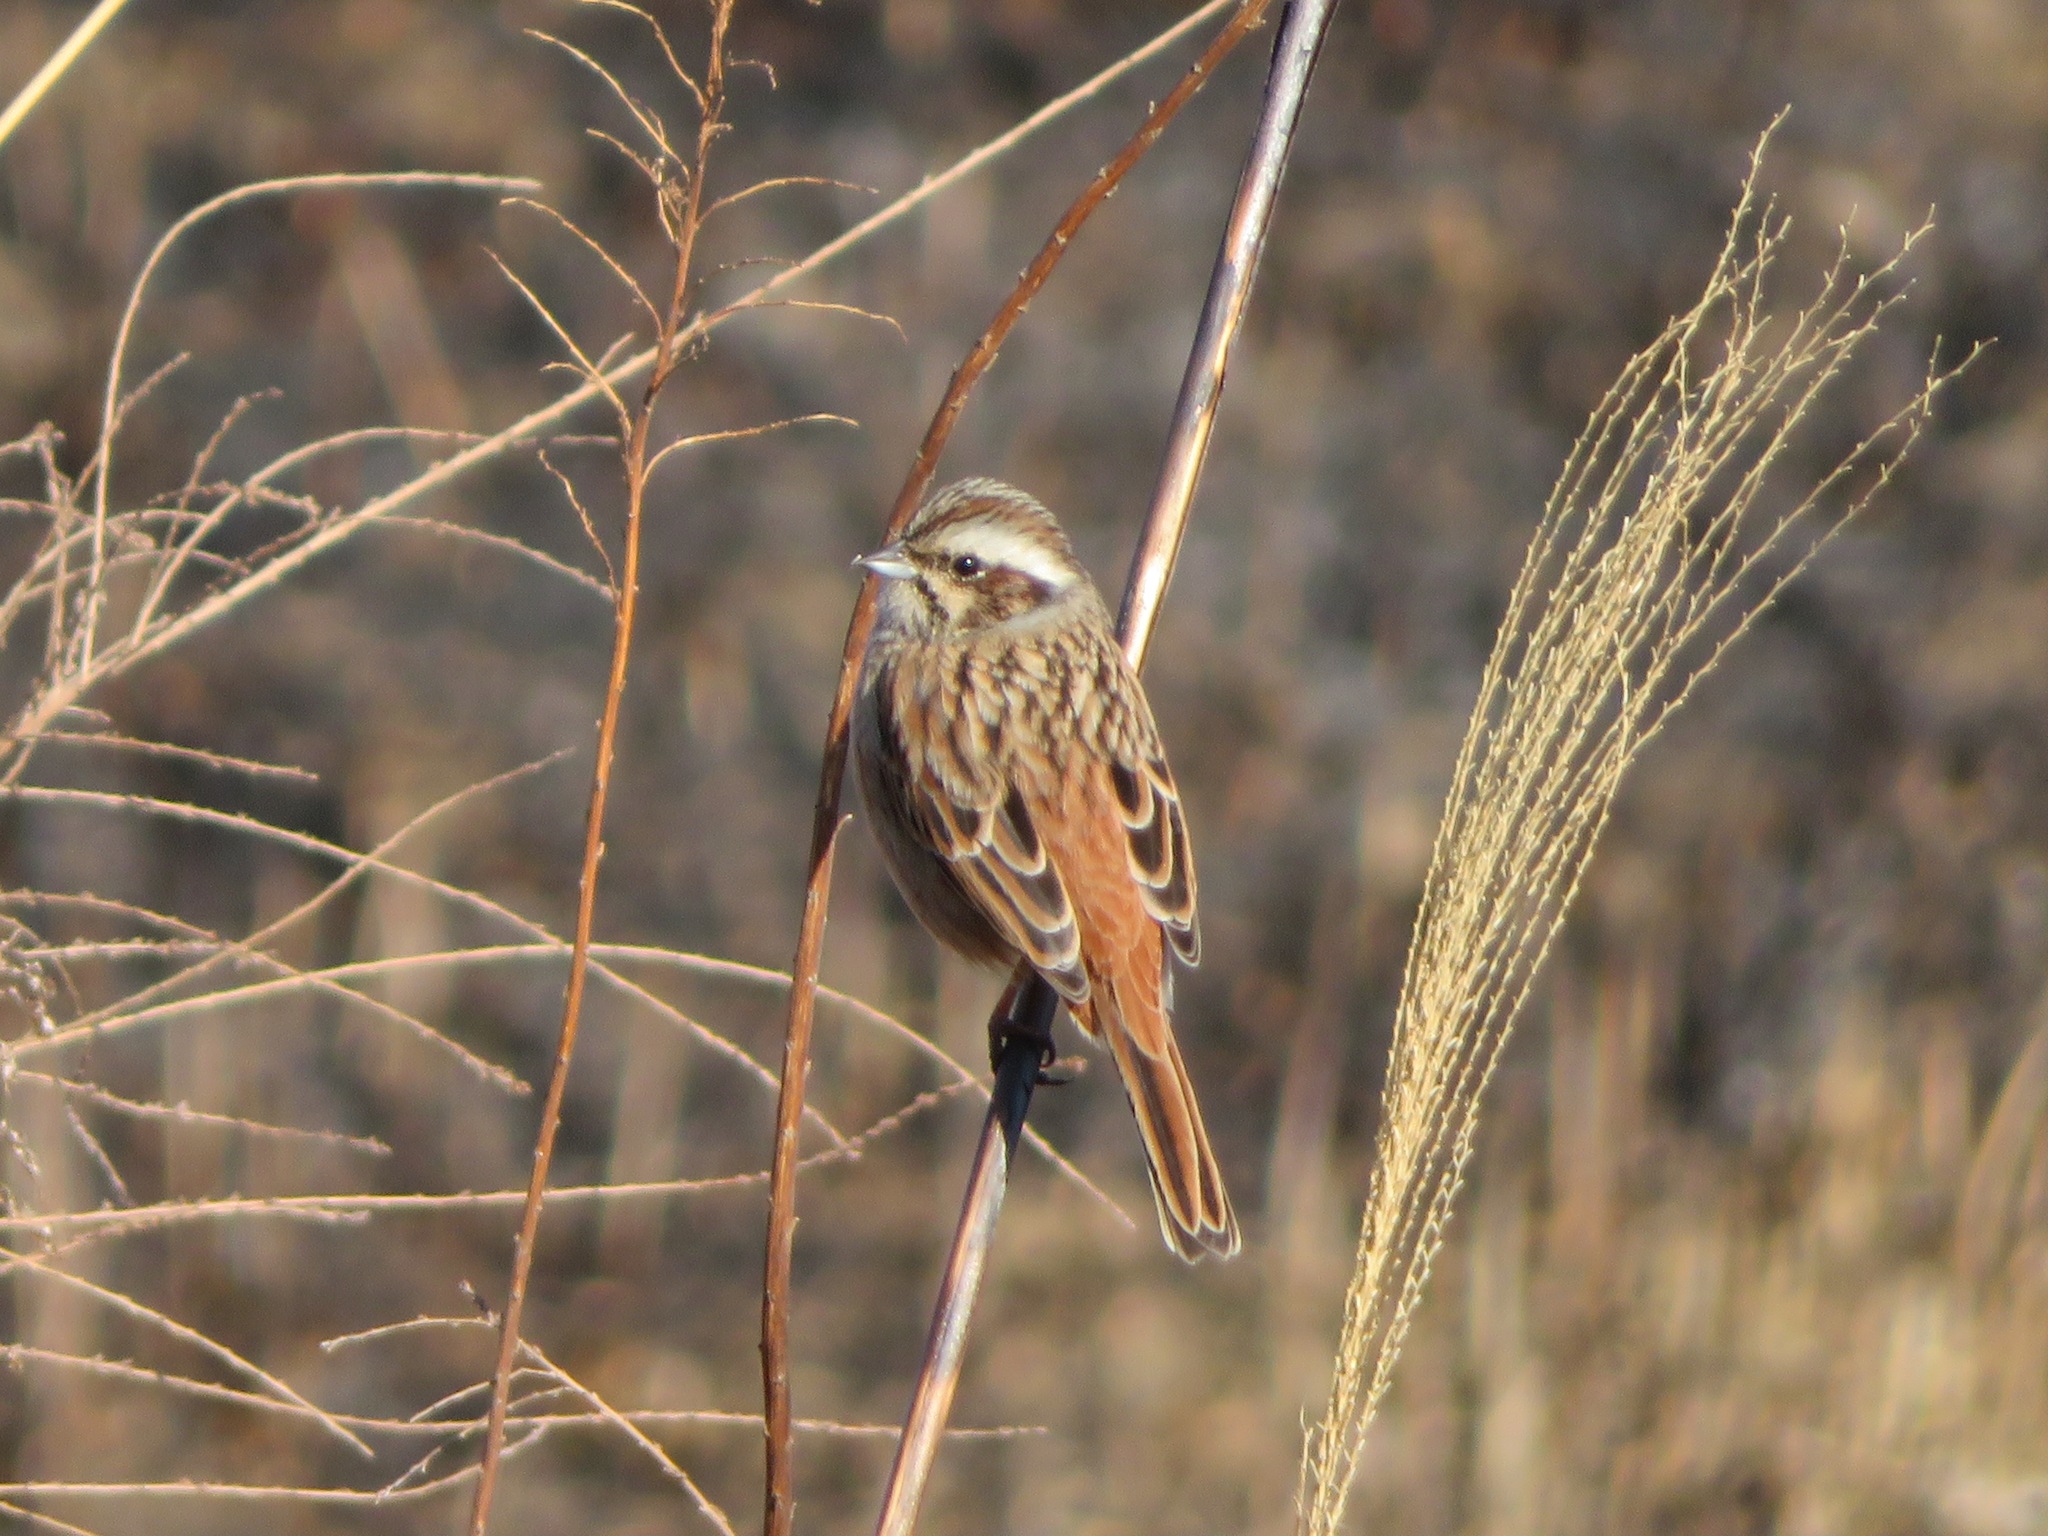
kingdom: Animalia
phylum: Chordata
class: Aves
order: Passeriformes
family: Emberizidae
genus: Emberiza
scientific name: Emberiza cioides
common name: Meadow bunting
